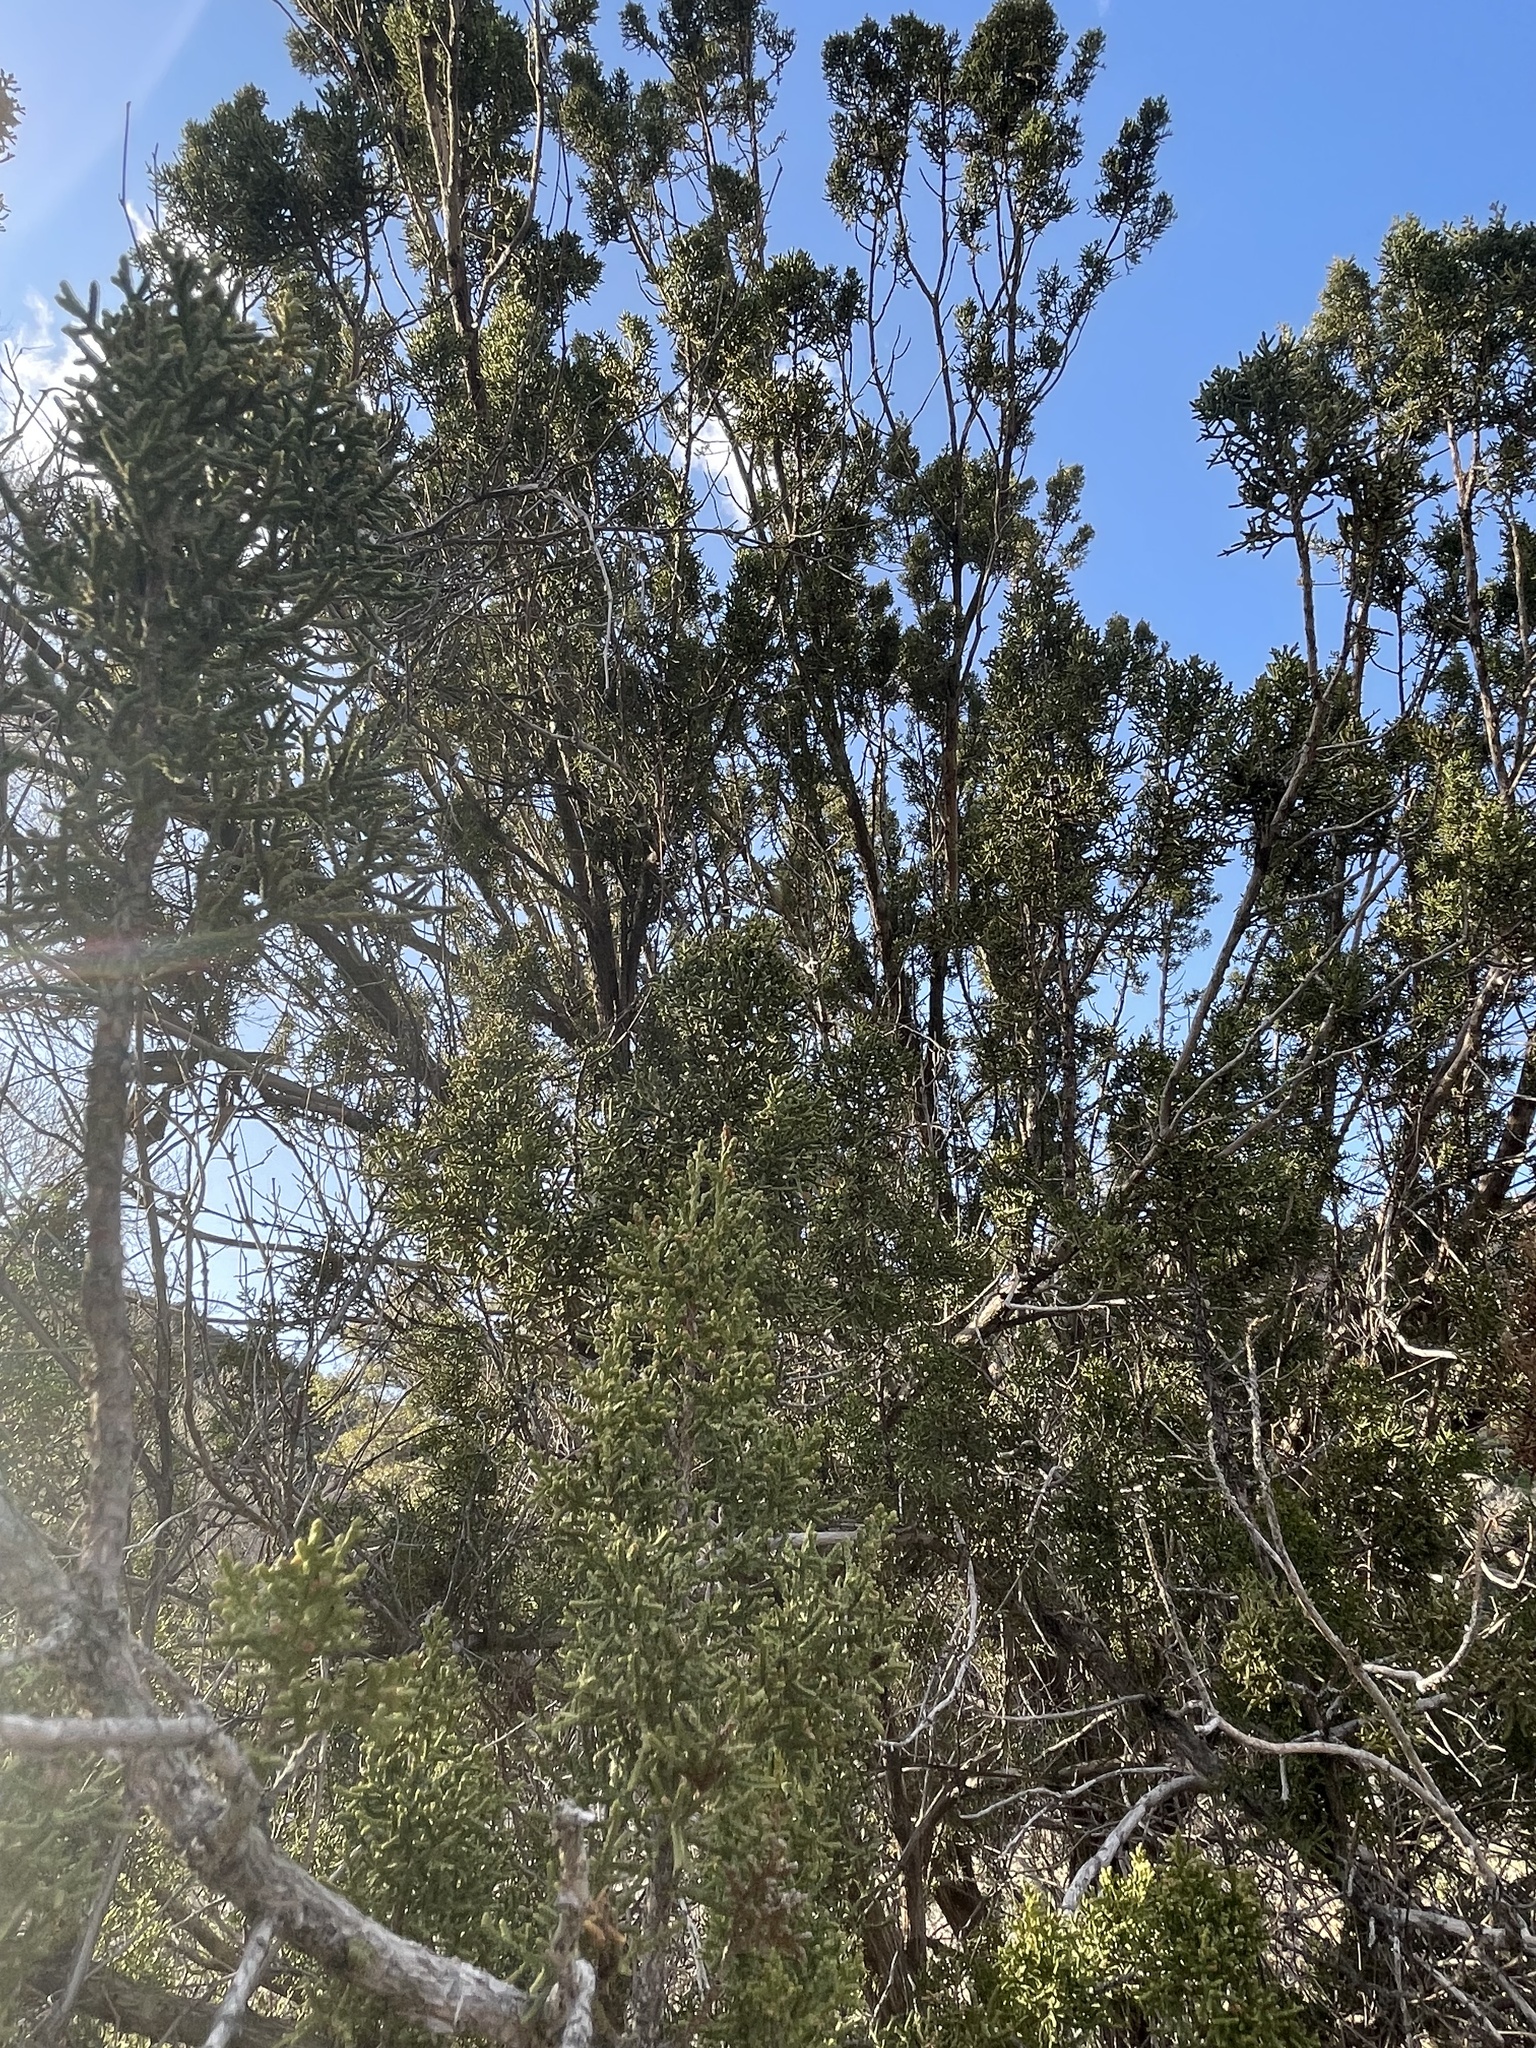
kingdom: Plantae
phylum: Tracheophyta
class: Pinopsida
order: Pinales
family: Cupressaceae
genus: Juniperus
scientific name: Juniperus arizonica
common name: Arizona juniper
